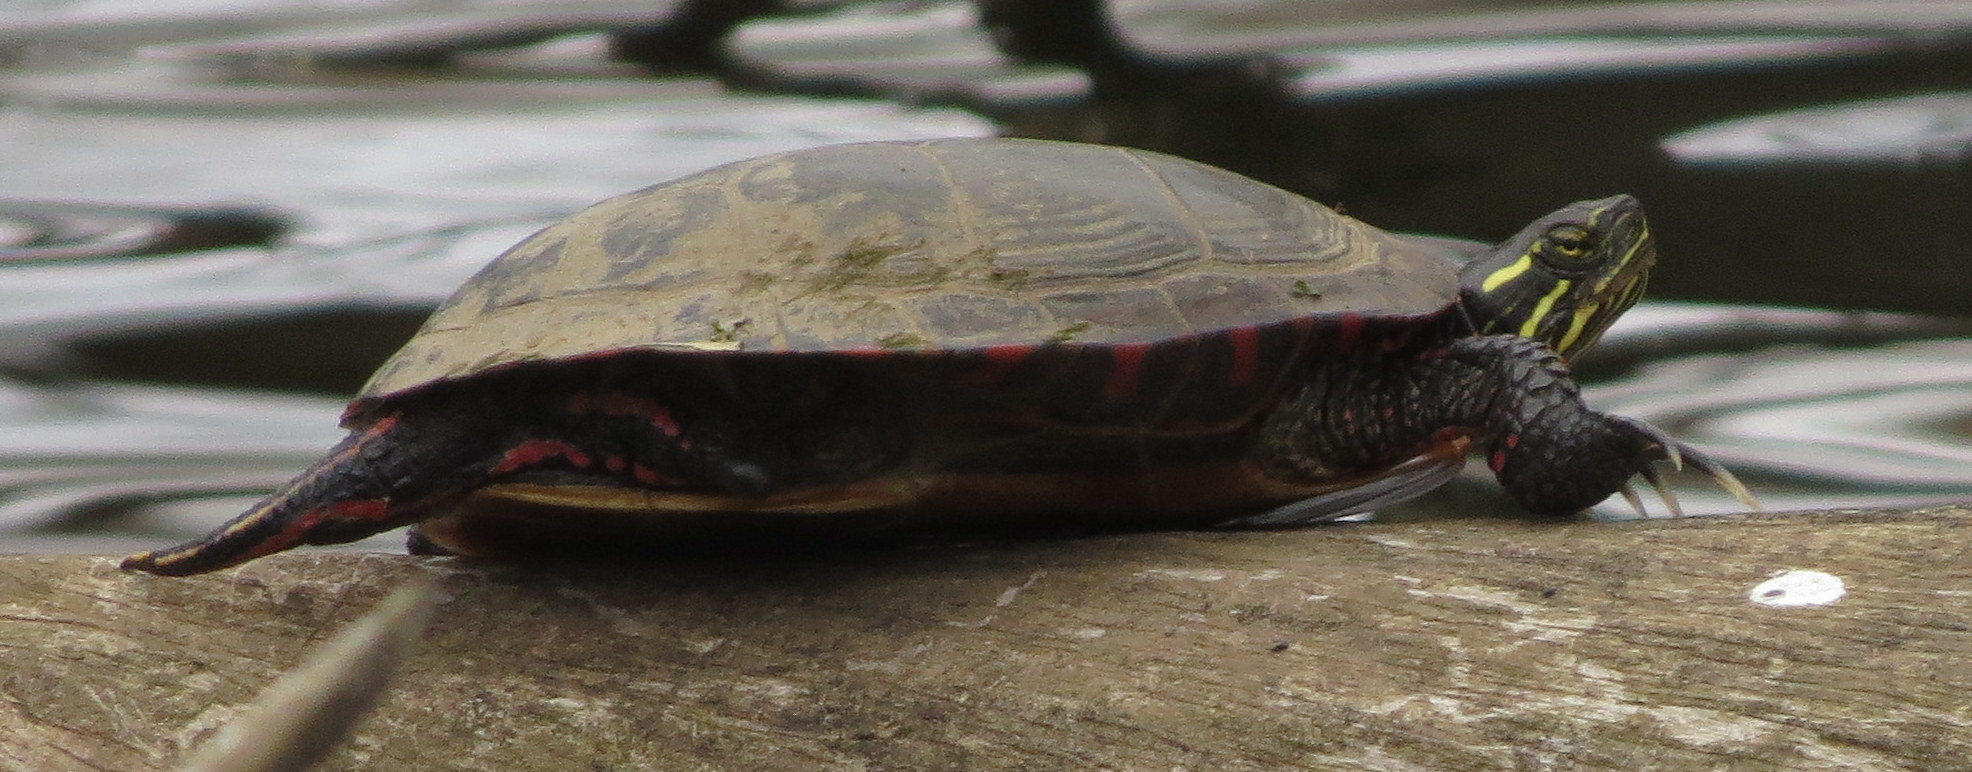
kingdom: Animalia
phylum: Chordata
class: Testudines
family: Emydidae
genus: Chrysemys
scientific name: Chrysemys picta
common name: Painted turtle
